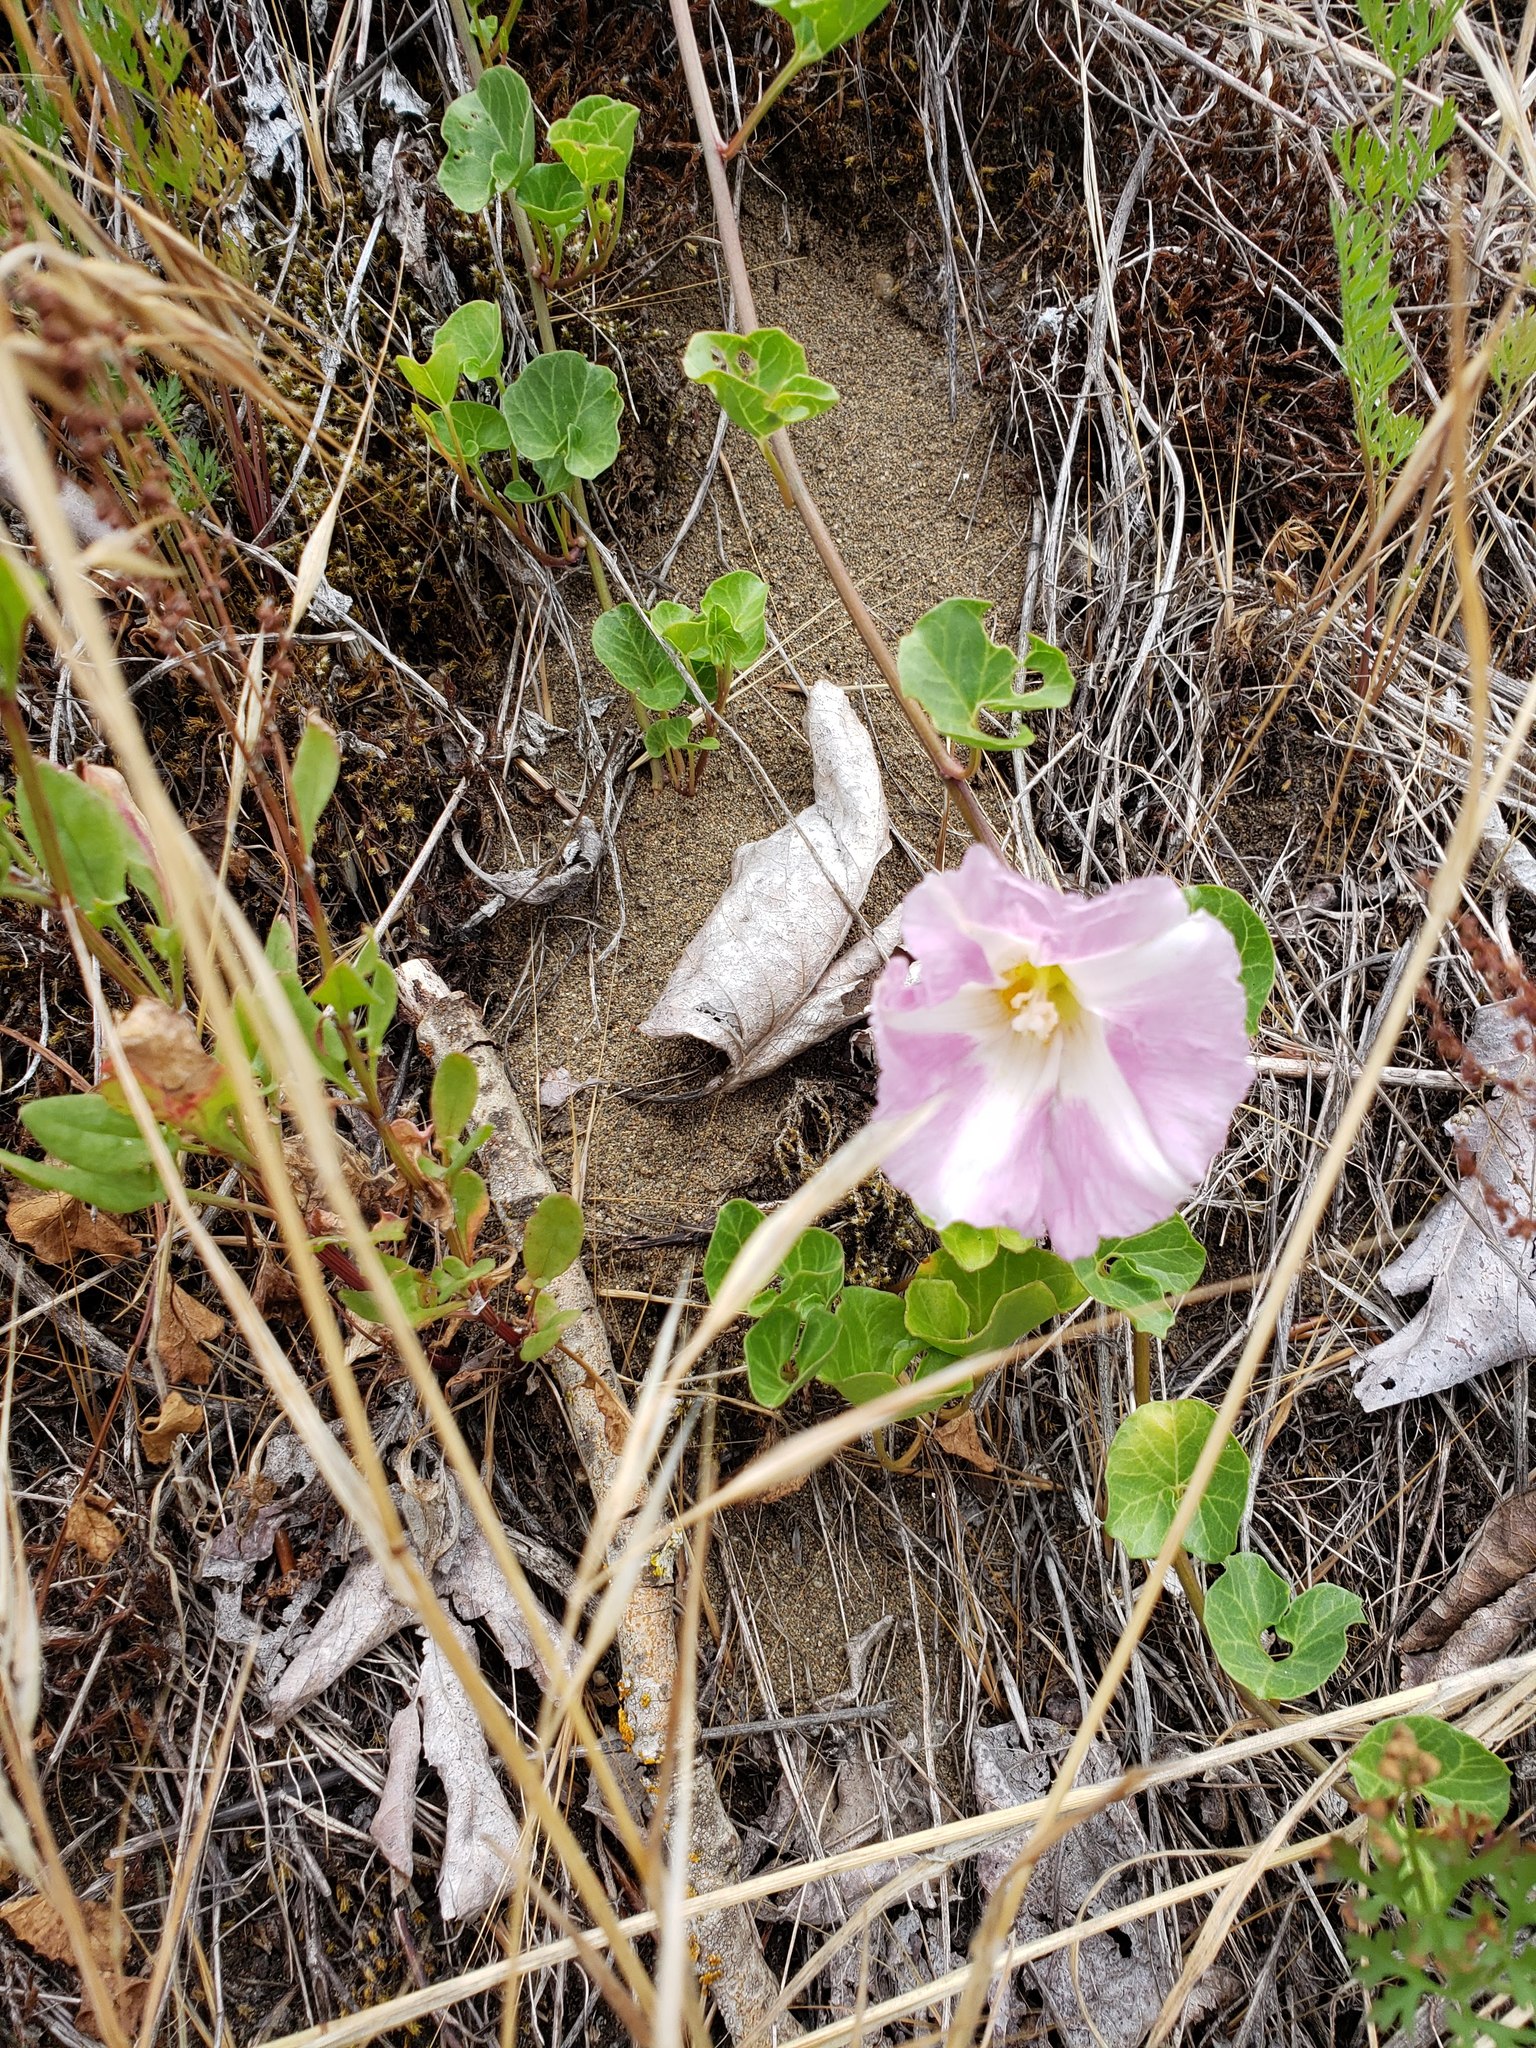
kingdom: Plantae
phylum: Tracheophyta
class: Magnoliopsida
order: Solanales
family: Convolvulaceae
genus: Calystegia
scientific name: Calystegia soldanella
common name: Sea bindweed
